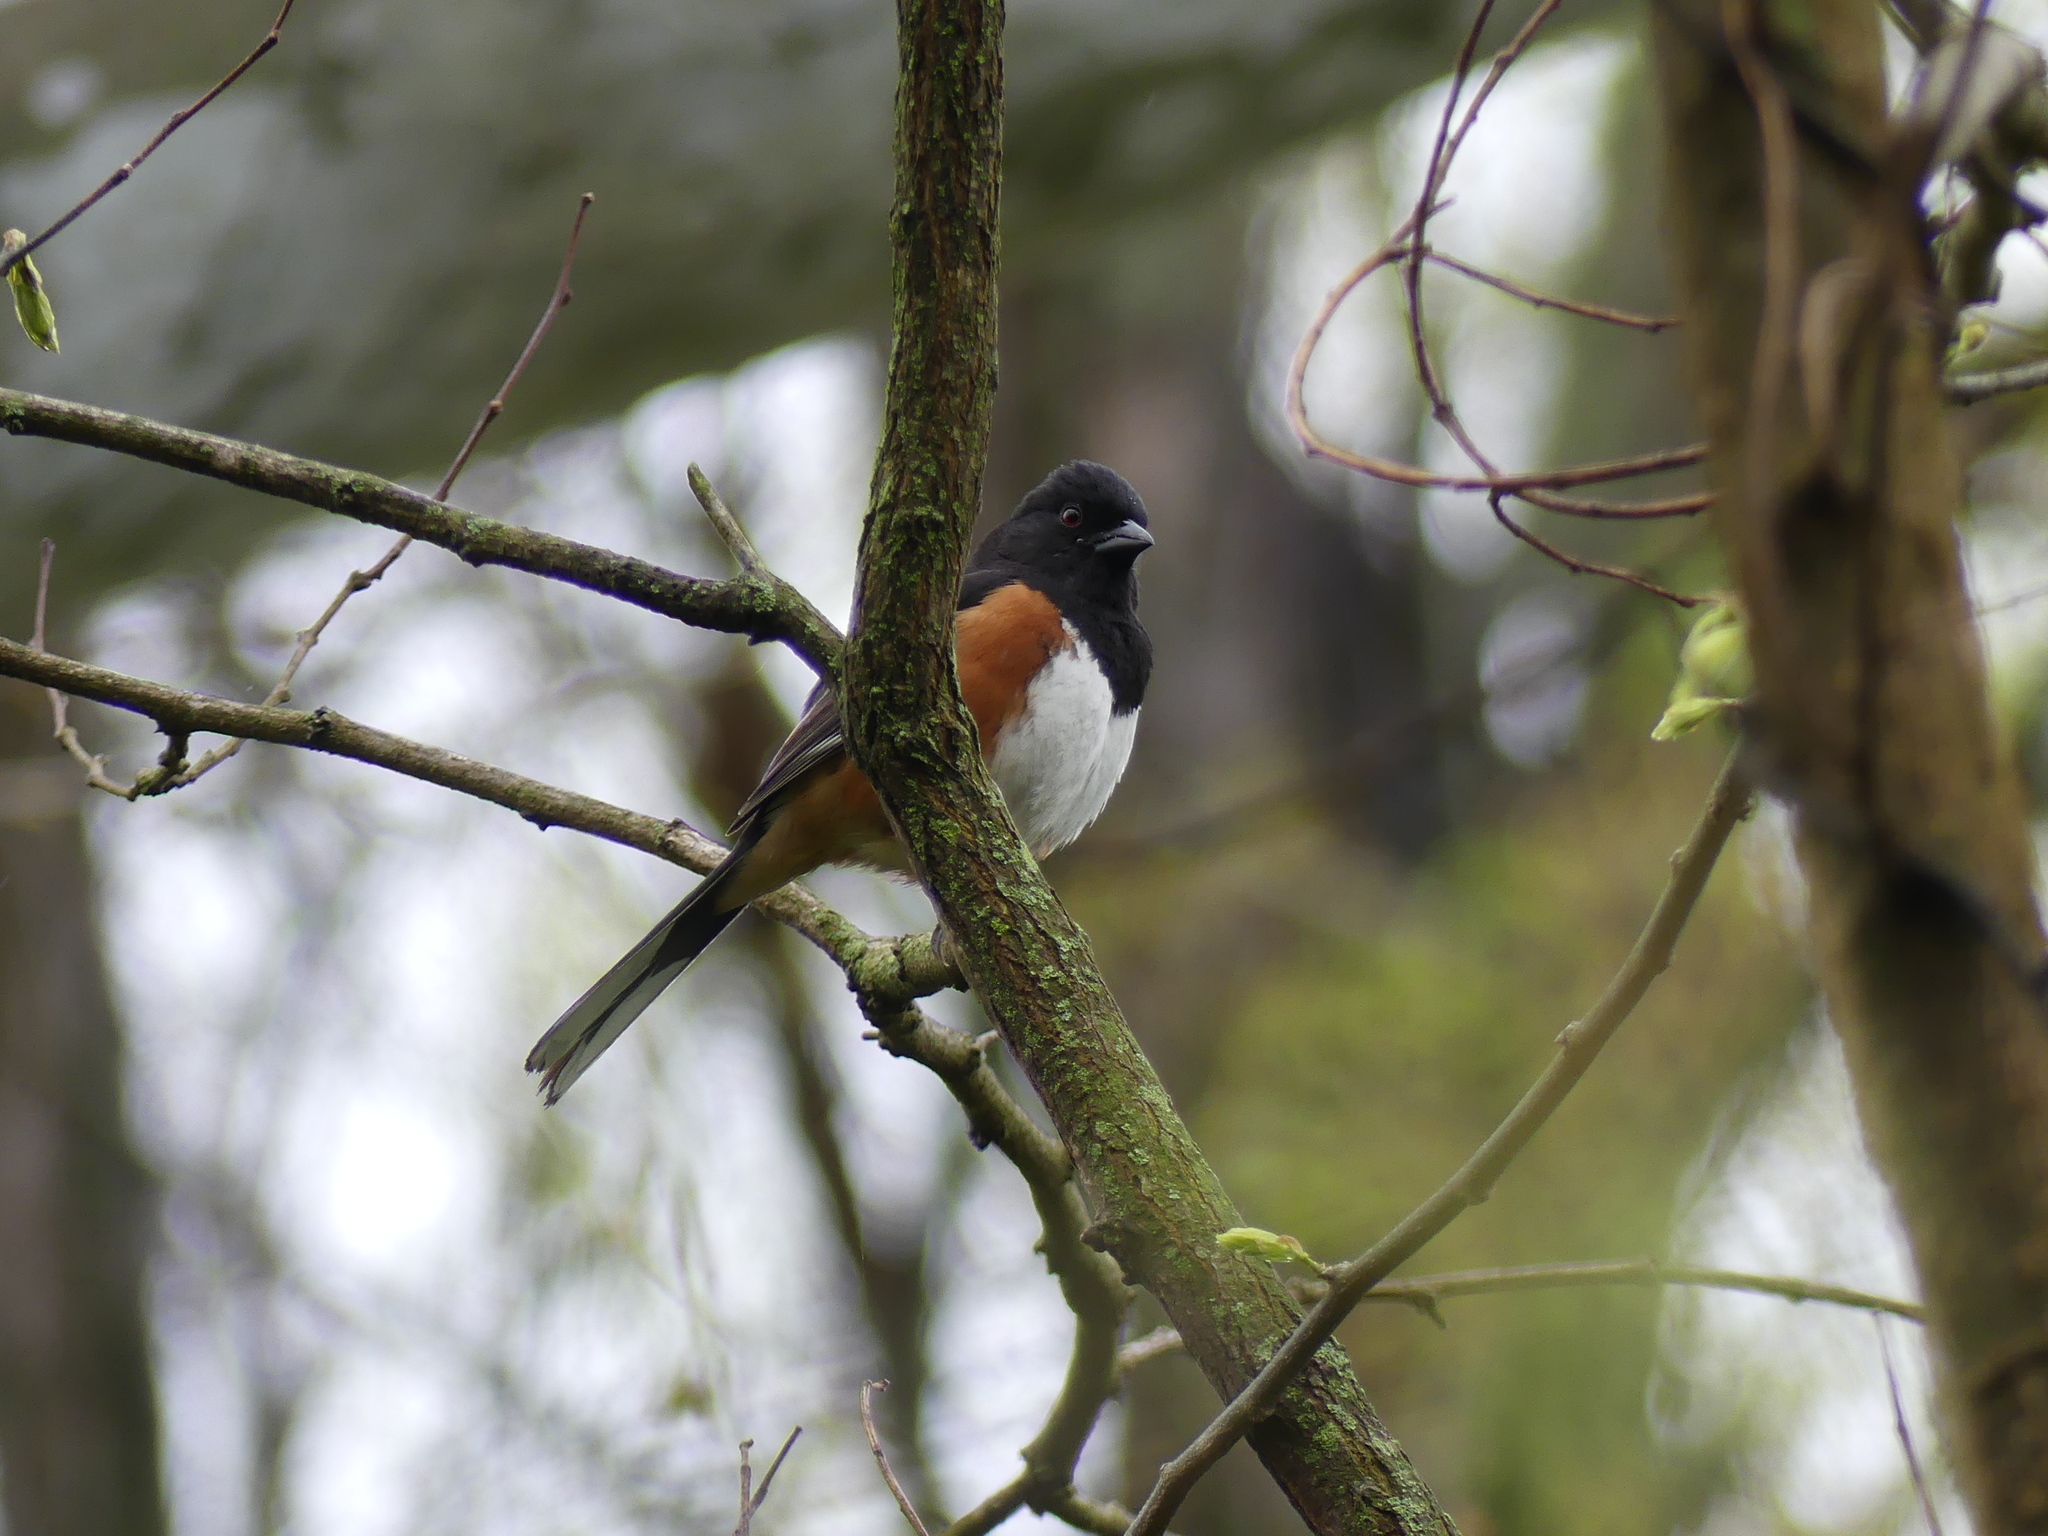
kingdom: Animalia
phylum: Chordata
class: Aves
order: Passeriformes
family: Passerellidae
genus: Pipilo
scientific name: Pipilo erythrophthalmus
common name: Eastern towhee
